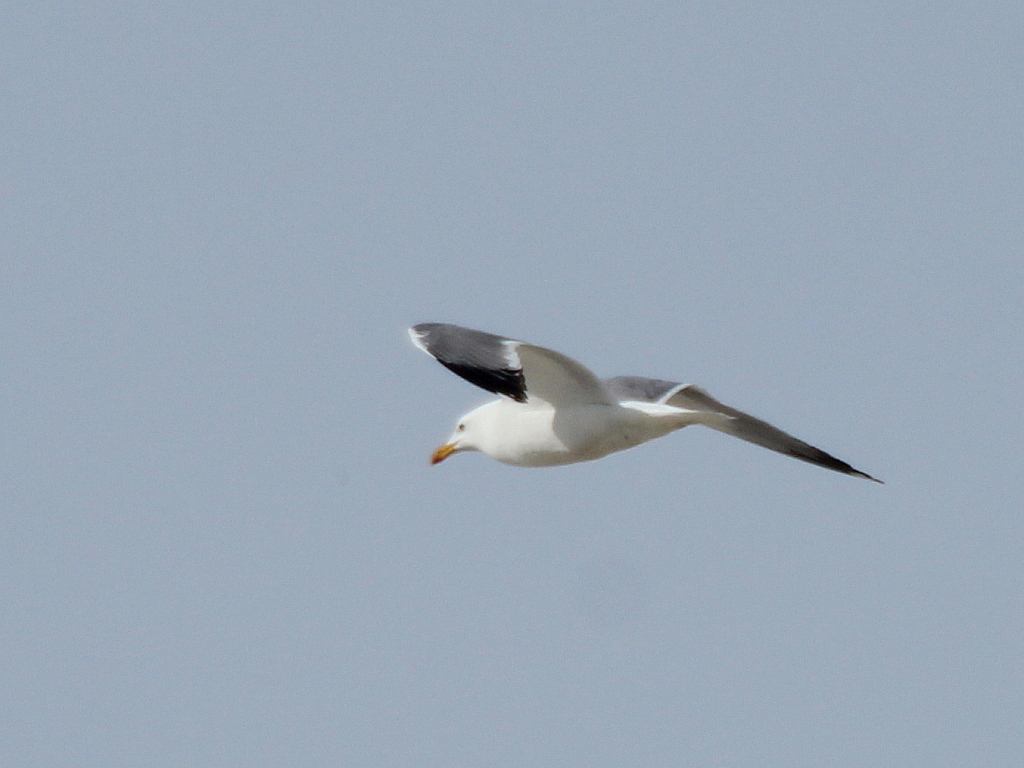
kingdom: Animalia
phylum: Chordata
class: Aves
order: Charadriiformes
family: Laridae
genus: Larus
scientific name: Larus fuscus
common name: Lesser black-backed gull
